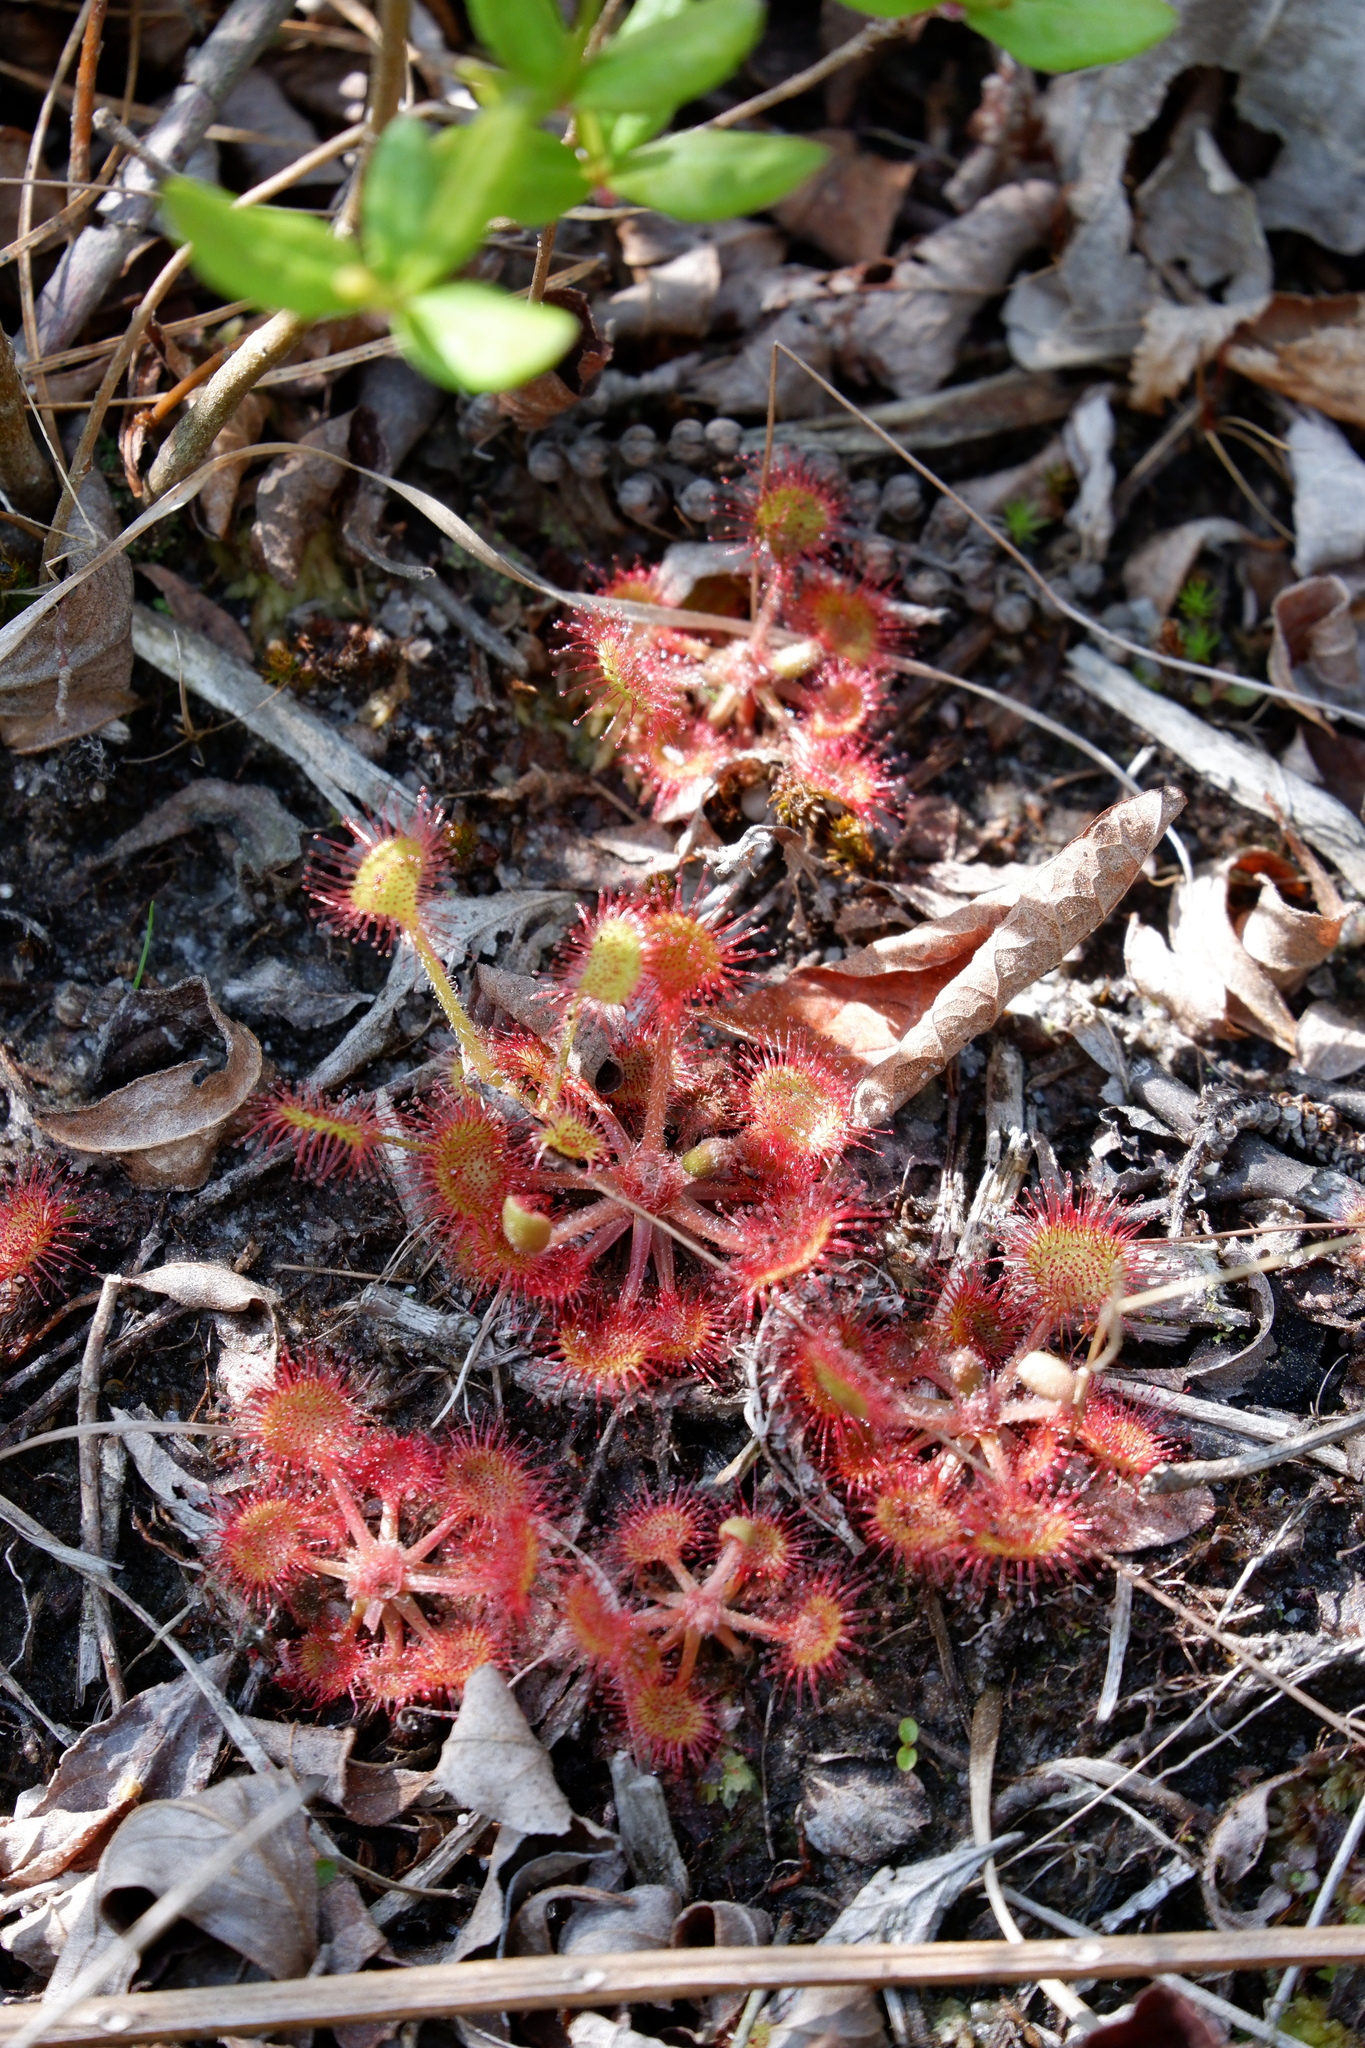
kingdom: Plantae
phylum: Tracheophyta
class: Magnoliopsida
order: Caryophyllales
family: Droseraceae
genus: Drosera
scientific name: Drosera rotundifolia
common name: Round-leaved sundew
